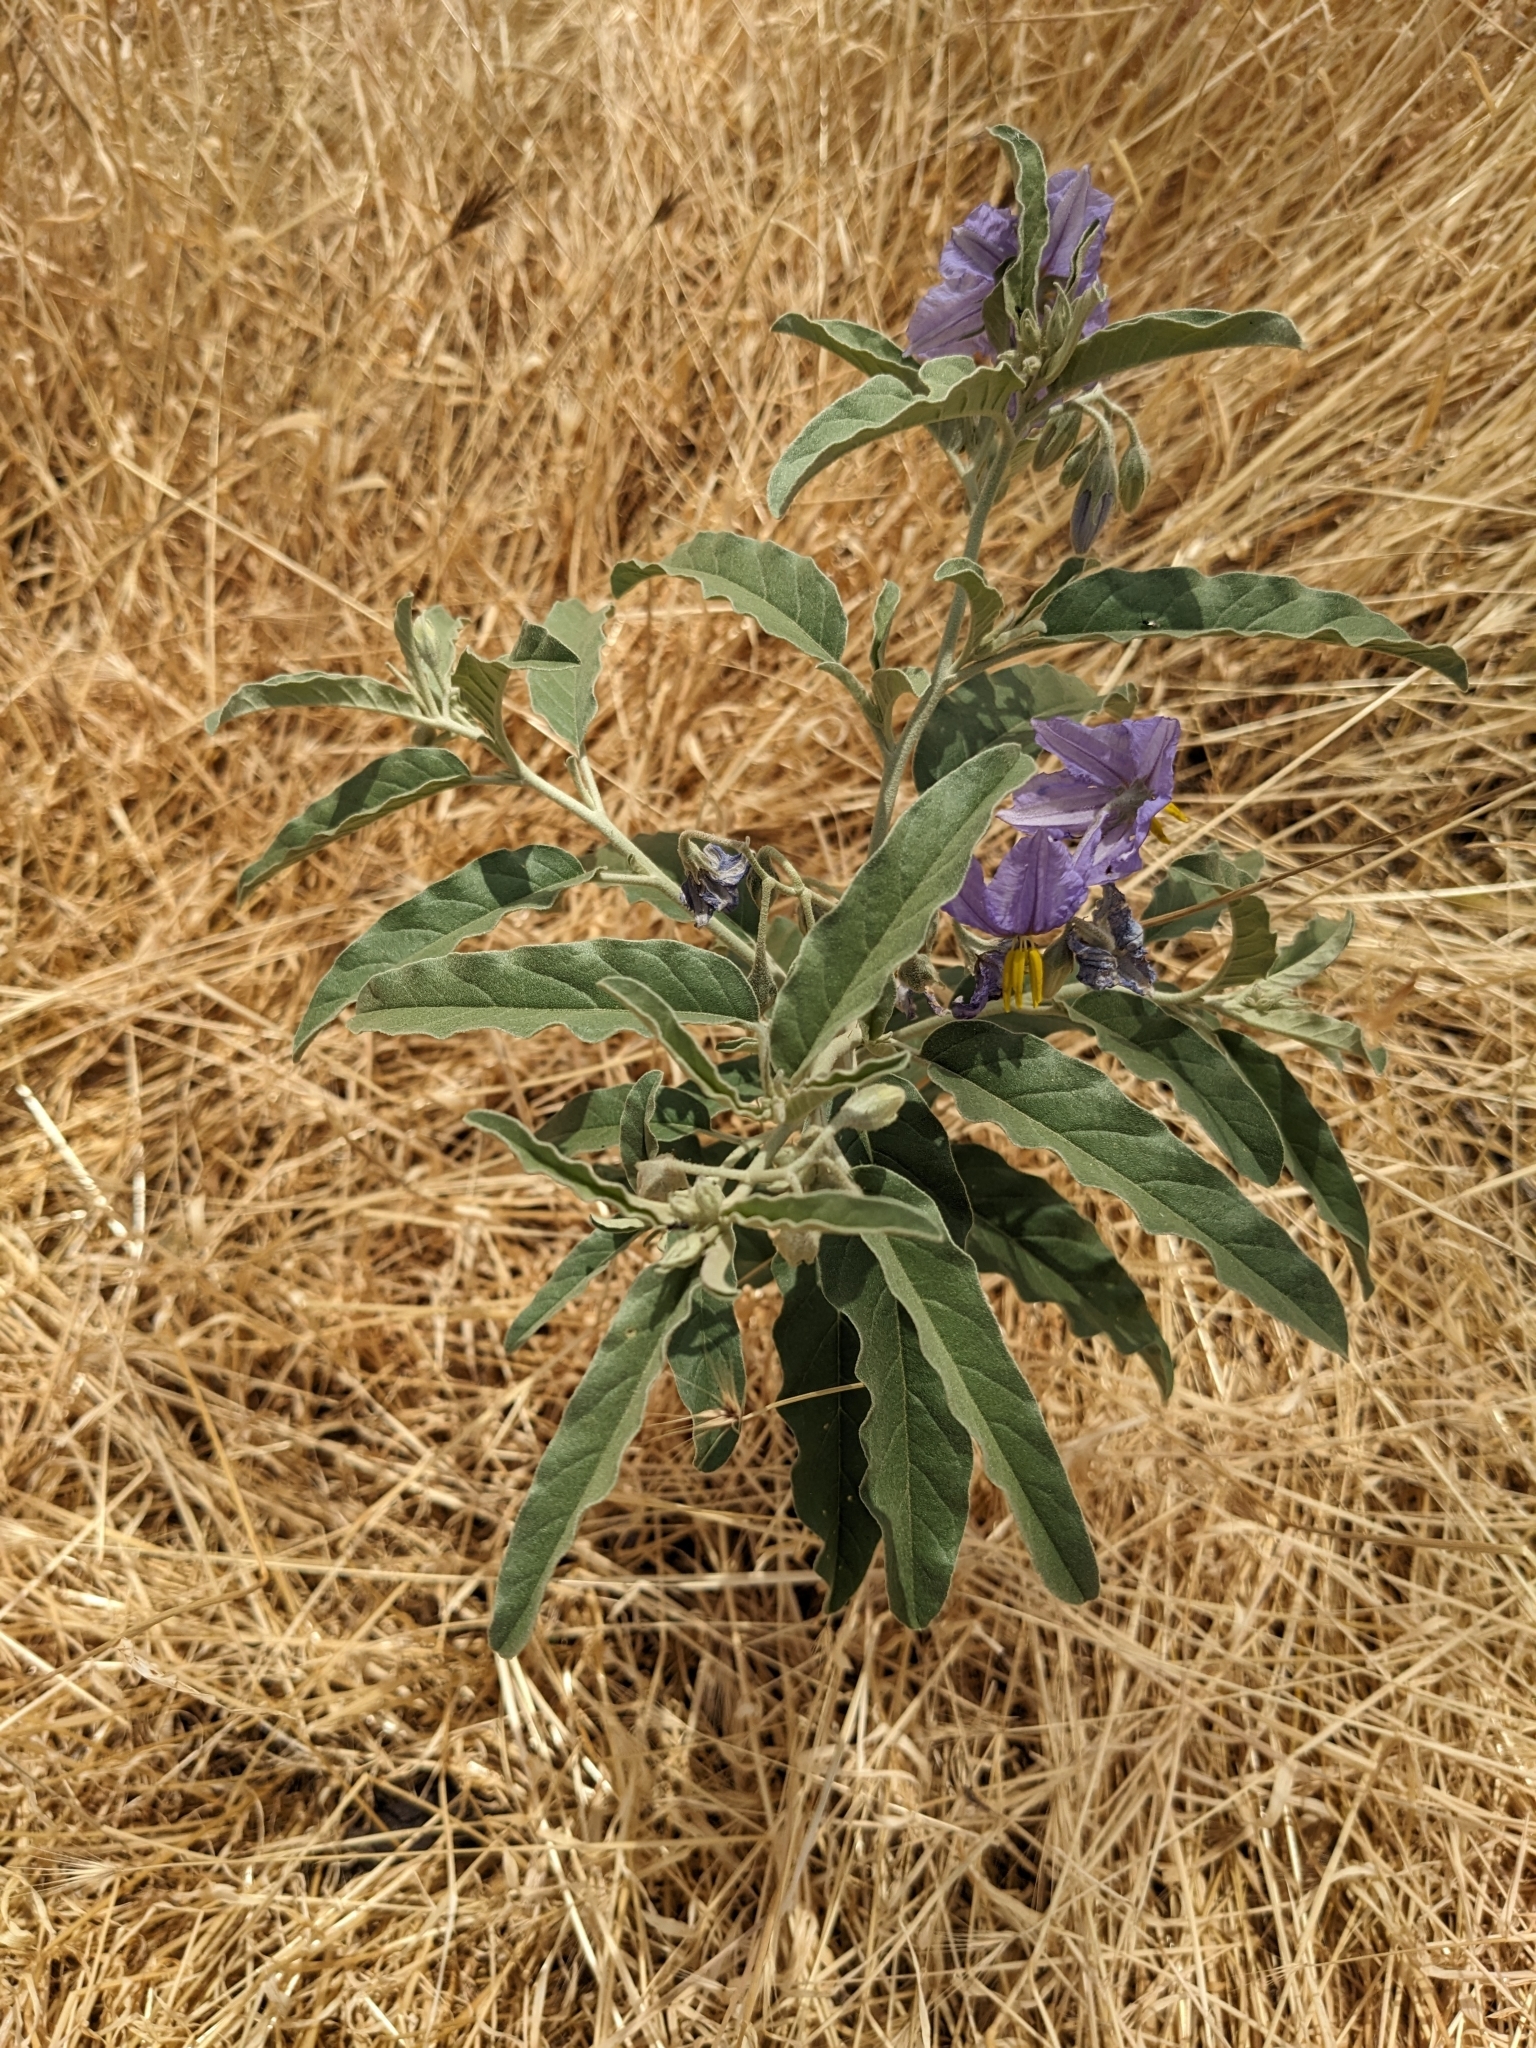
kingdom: Plantae
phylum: Tracheophyta
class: Magnoliopsida
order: Solanales
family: Solanaceae
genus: Solanum
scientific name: Solanum elaeagnifolium
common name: Silverleaf nightshade
